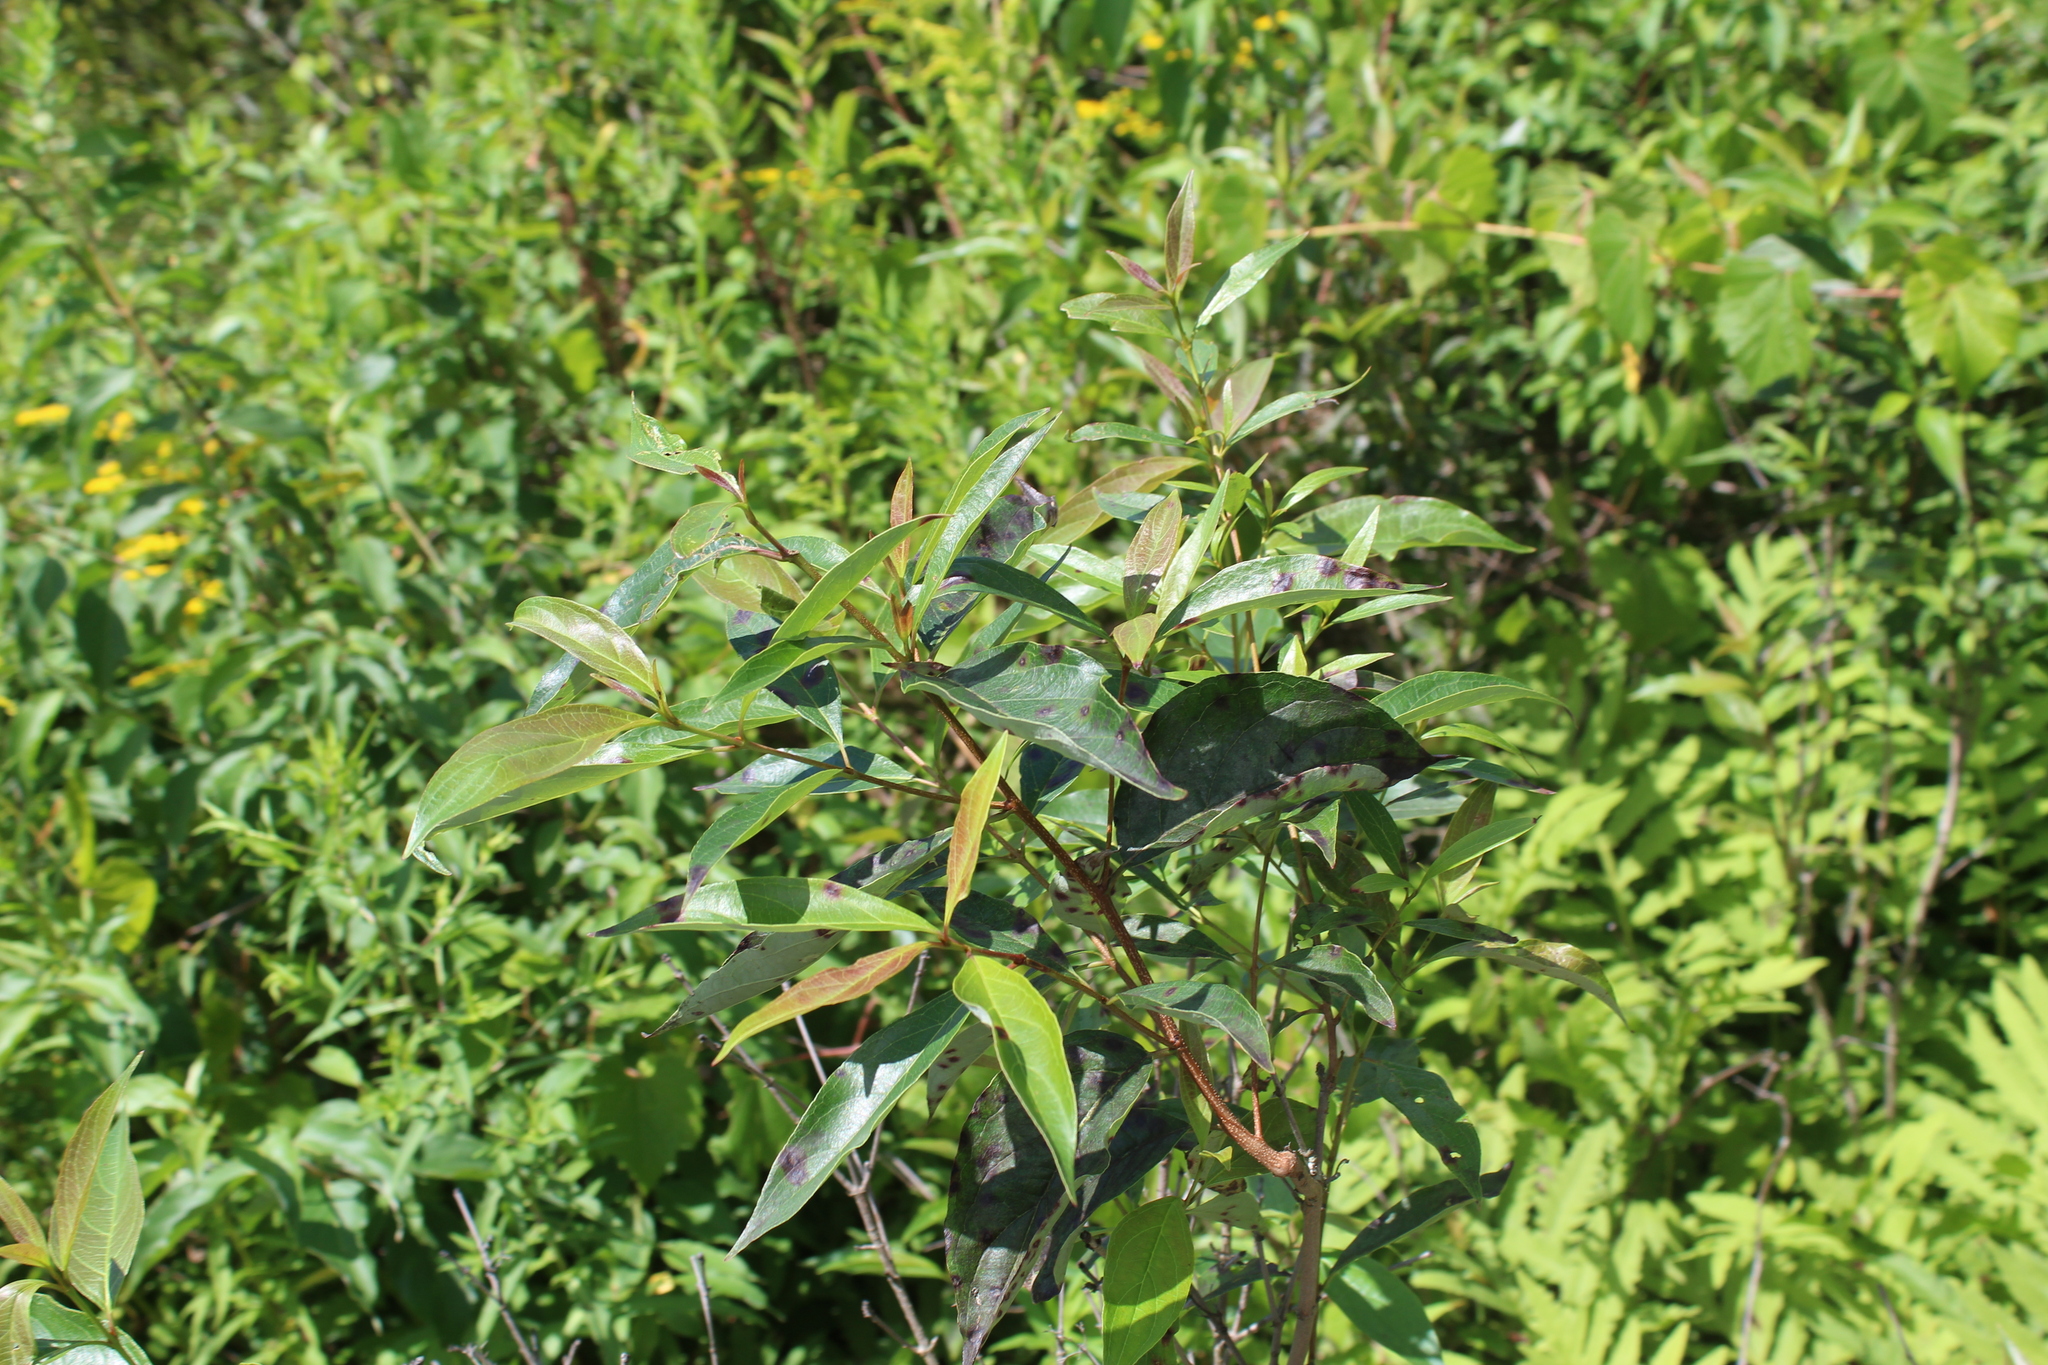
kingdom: Plantae
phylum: Tracheophyta
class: Magnoliopsida
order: Cornales
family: Cornaceae
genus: Cornus
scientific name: Cornus obliqua
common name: Pale dogwood
